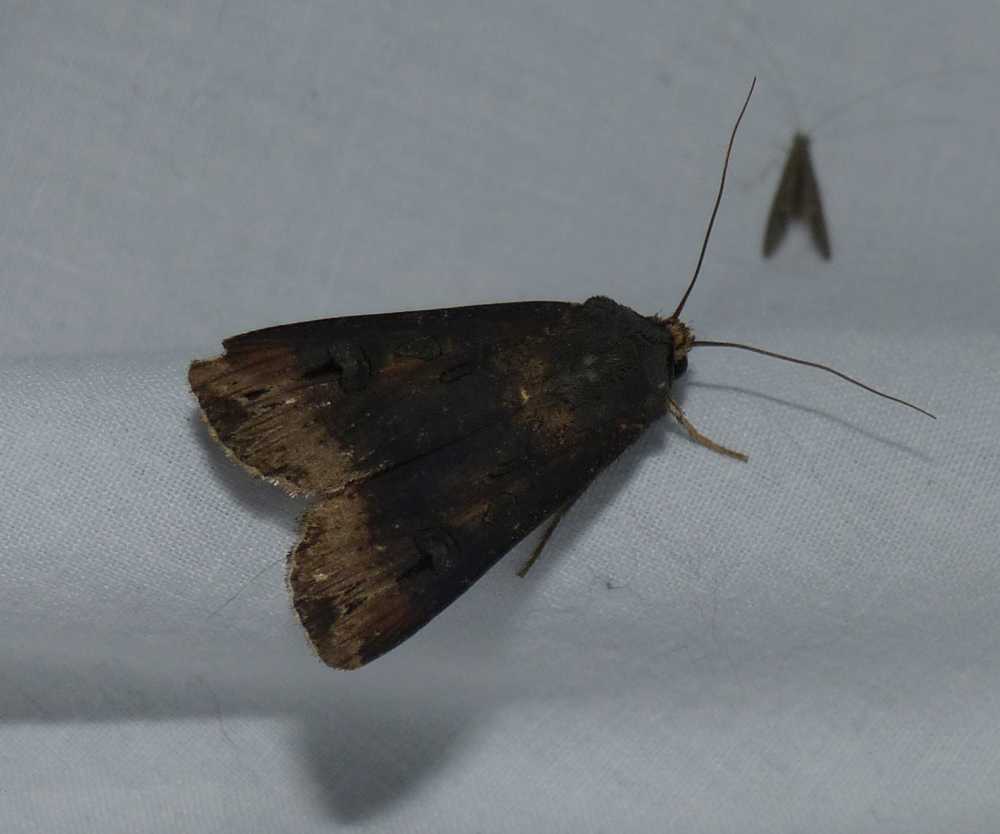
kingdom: Animalia
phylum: Arthropoda
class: Insecta
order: Lepidoptera
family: Noctuidae
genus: Agrotis
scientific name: Agrotis ipsilon
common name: Dark sword-grass
